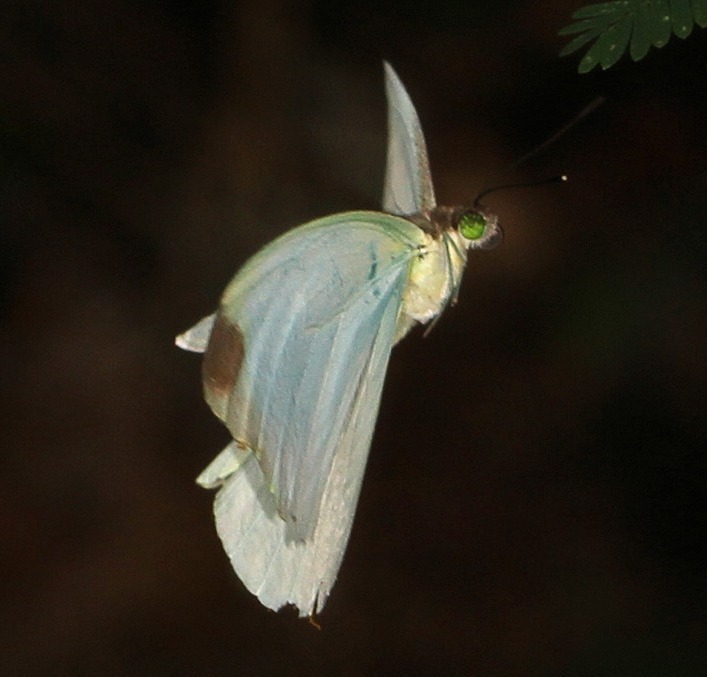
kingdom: Animalia
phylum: Arthropoda
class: Insecta
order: Lepidoptera
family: Pieridae
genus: Nepheronia
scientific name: Nepheronia argia
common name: Large vagrant
